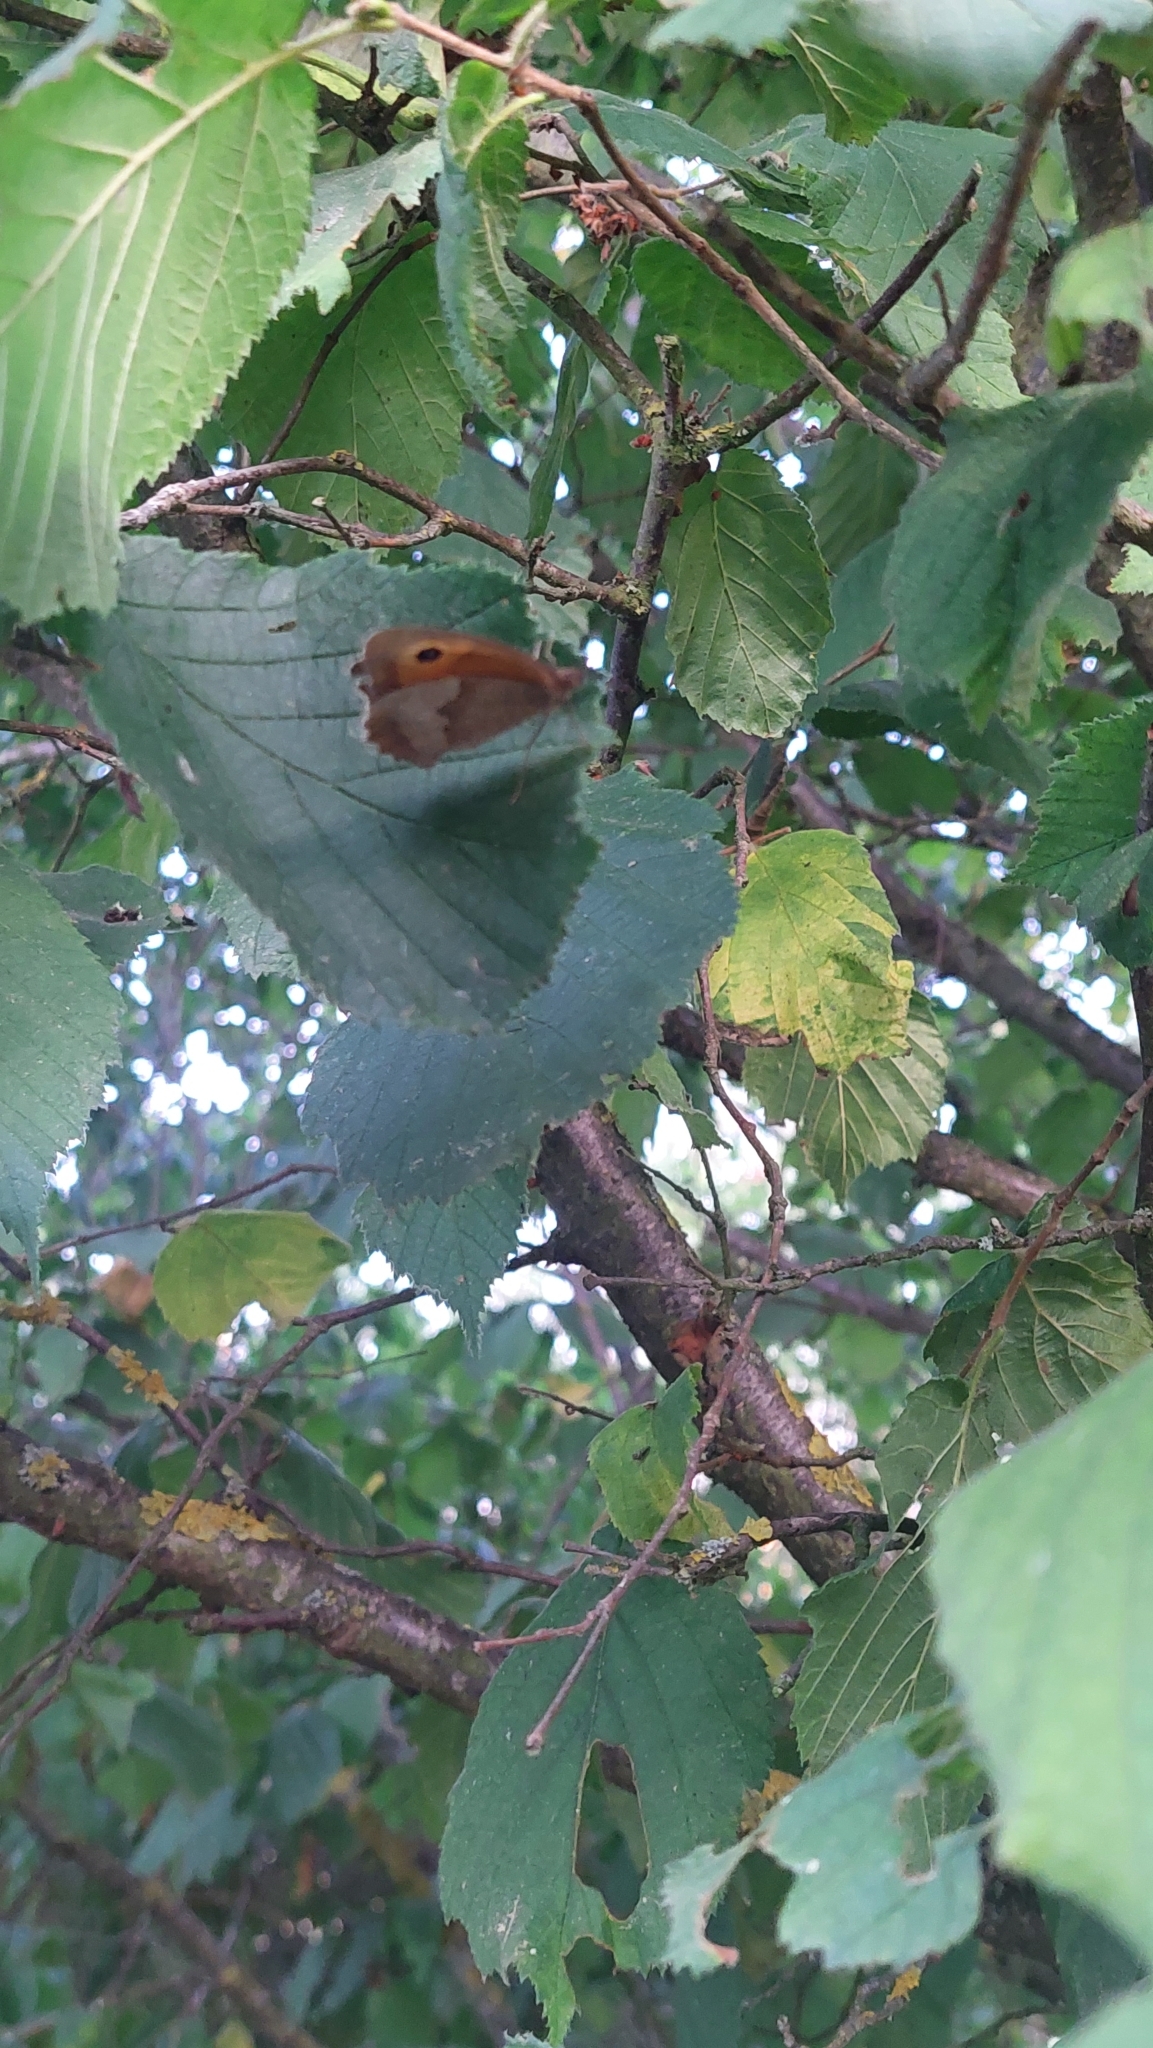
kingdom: Animalia
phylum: Arthropoda
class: Insecta
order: Lepidoptera
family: Nymphalidae
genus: Maniola
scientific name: Maniola jurtina
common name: Meadow brown
